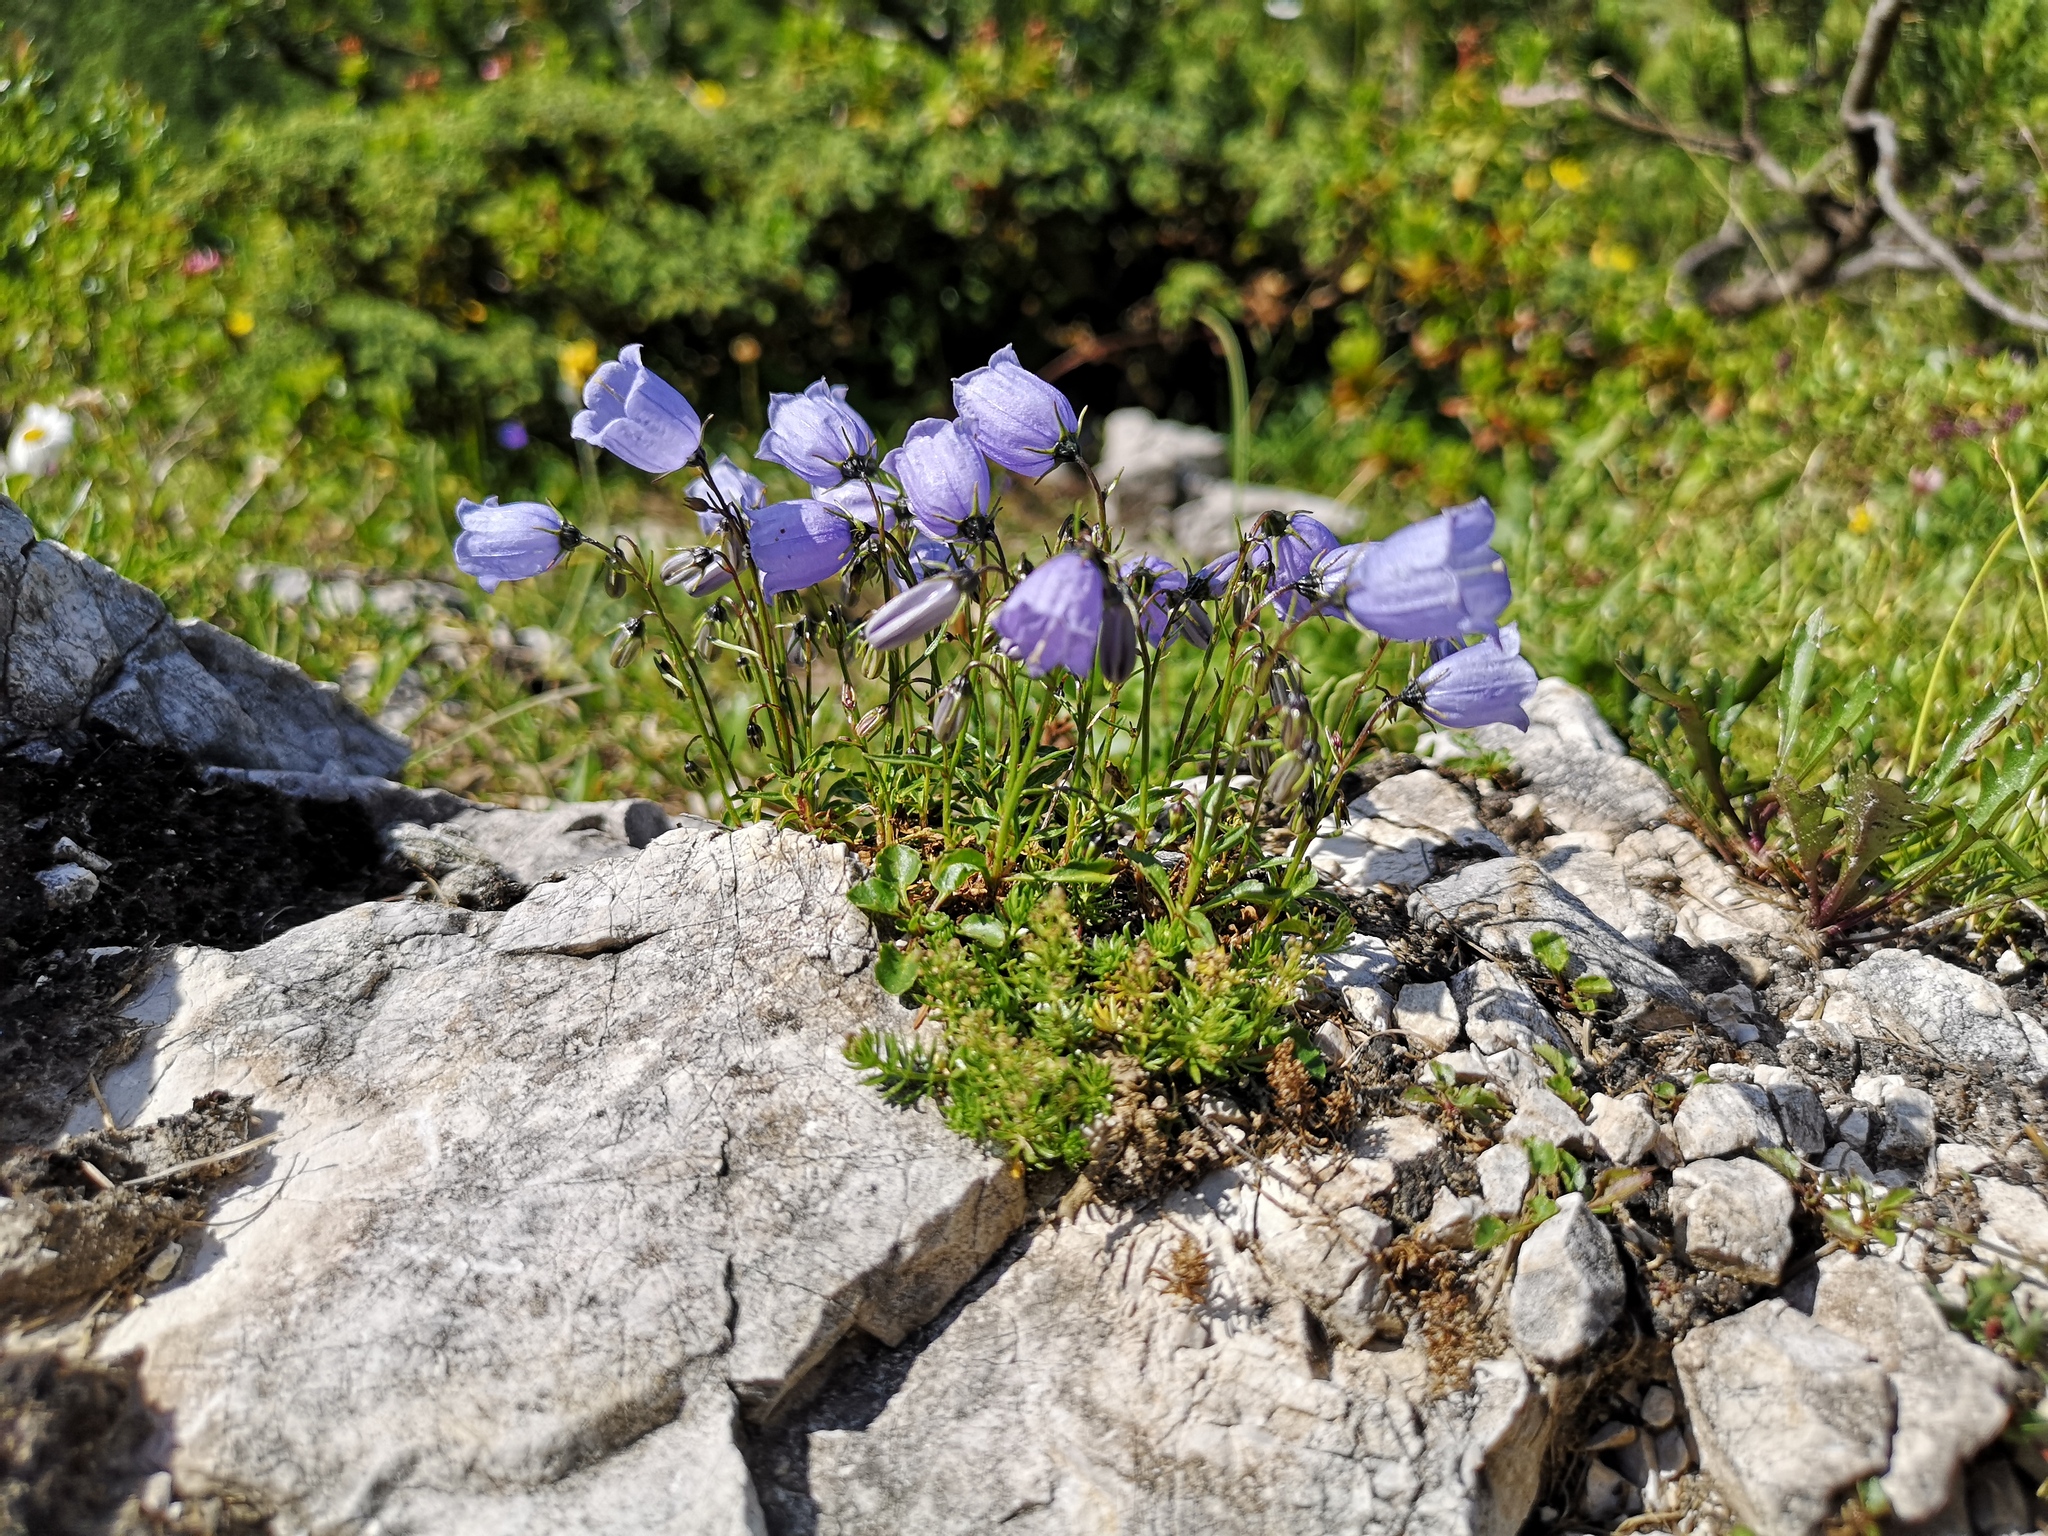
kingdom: Plantae
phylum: Tracheophyta
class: Magnoliopsida
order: Asterales
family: Campanulaceae
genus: Campanula
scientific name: Campanula cochleariifolia
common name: Fairies'-thimbles
